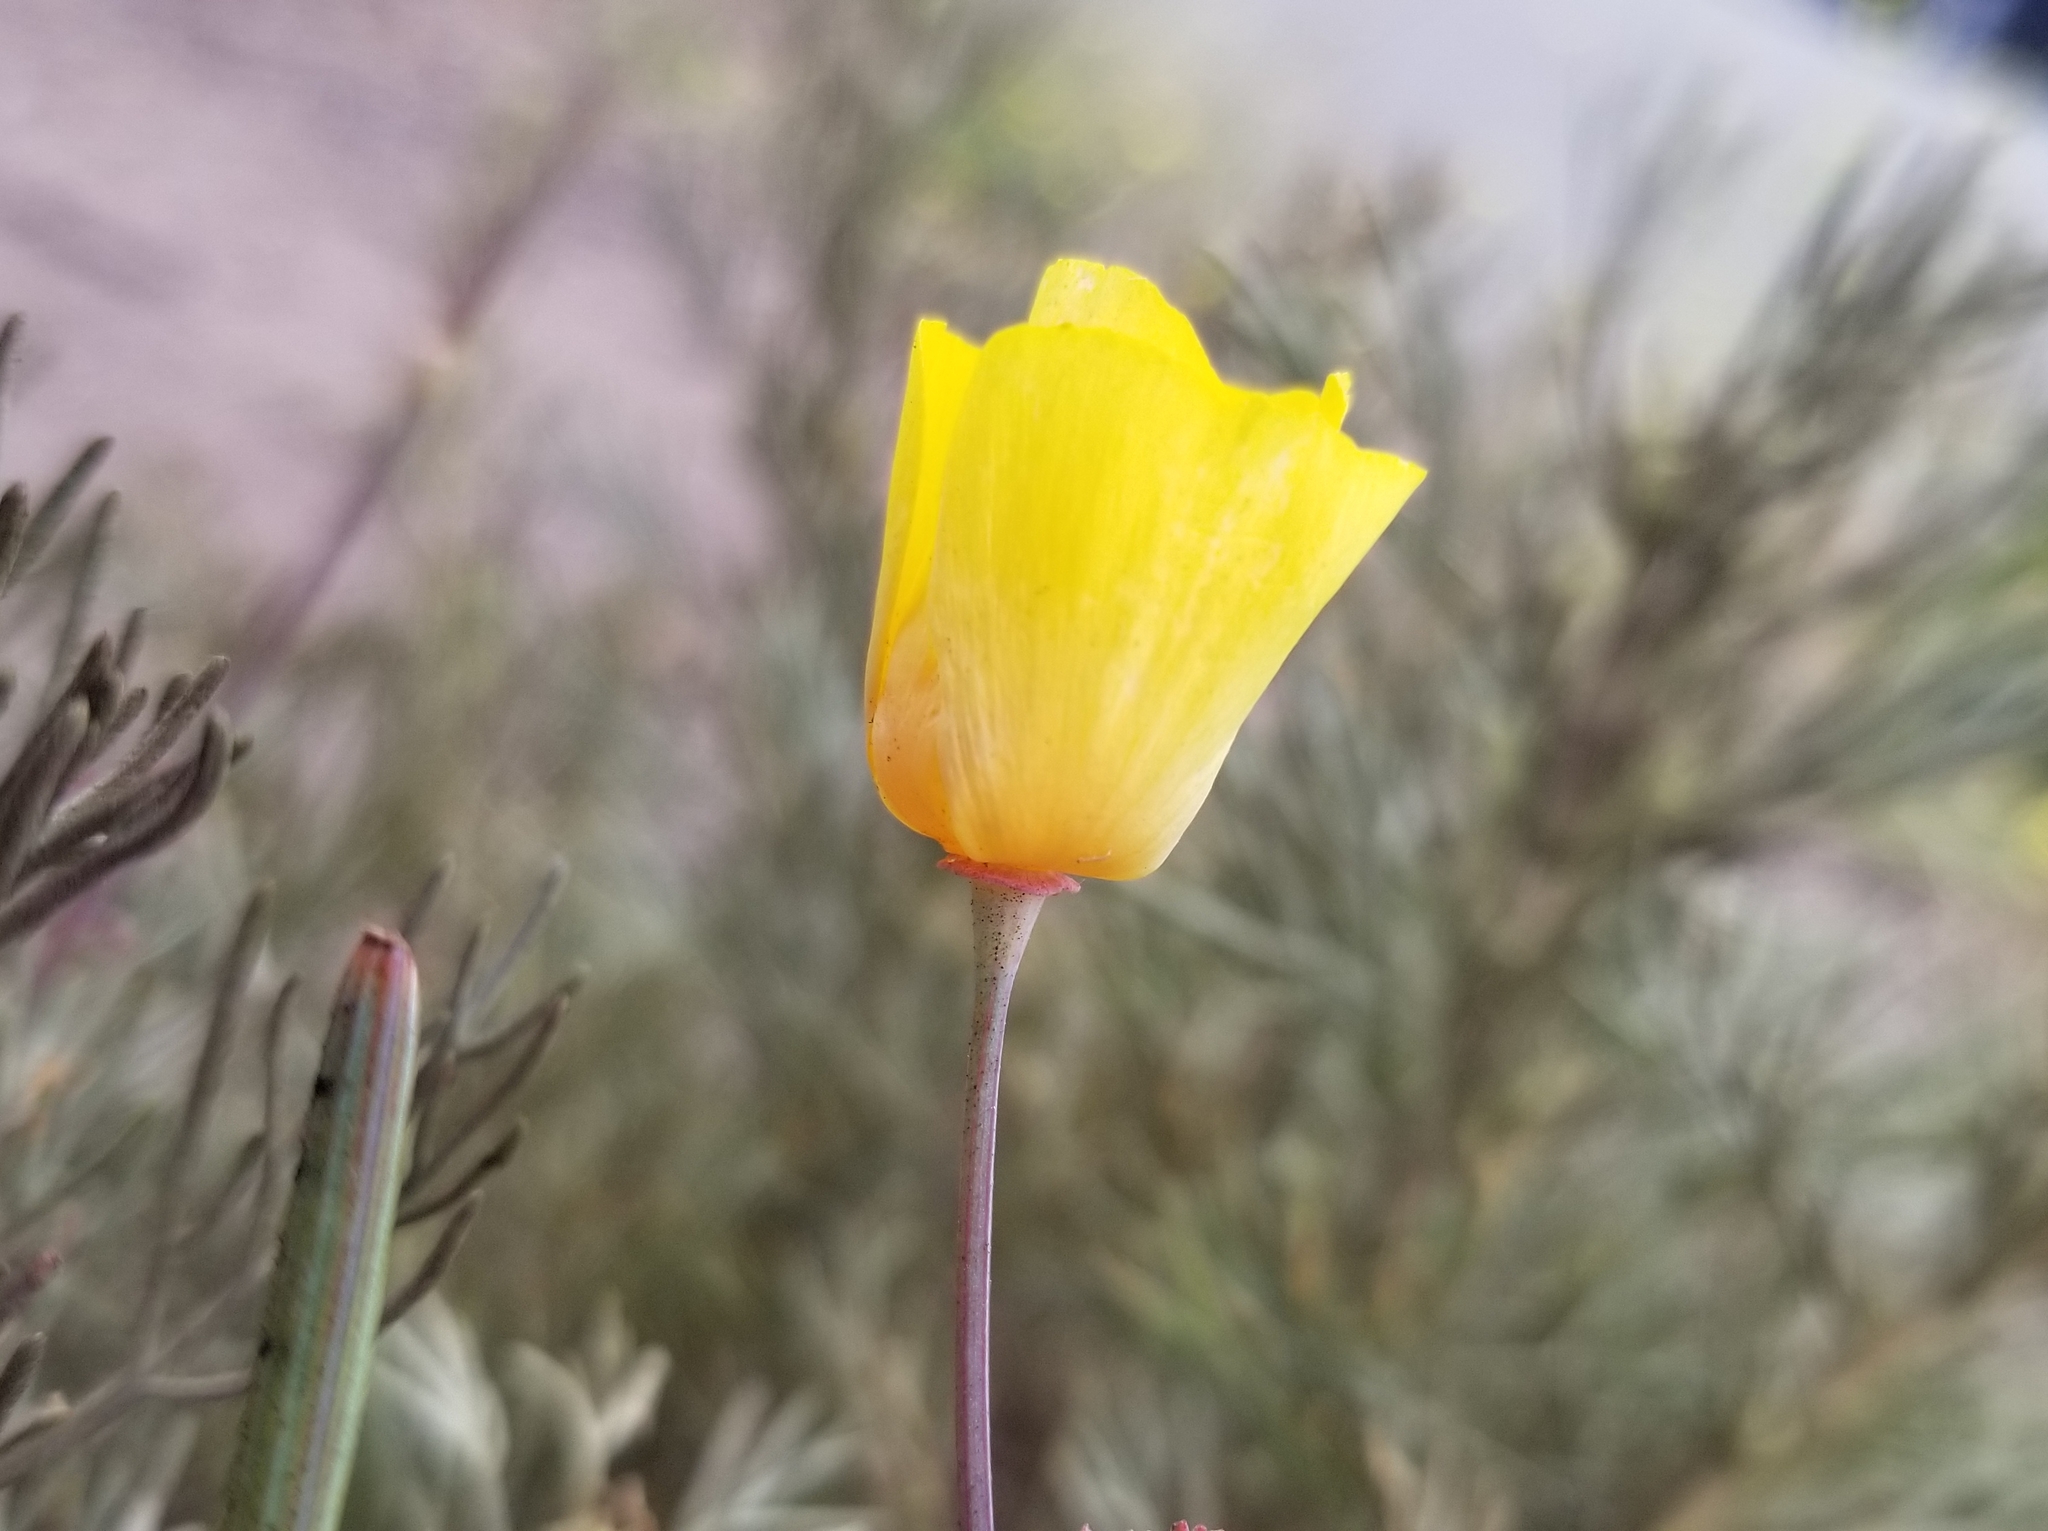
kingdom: Plantae
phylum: Tracheophyta
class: Magnoliopsida
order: Ranunculales
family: Papaveraceae
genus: Eschscholzia
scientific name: Eschscholzia californica
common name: California poppy
